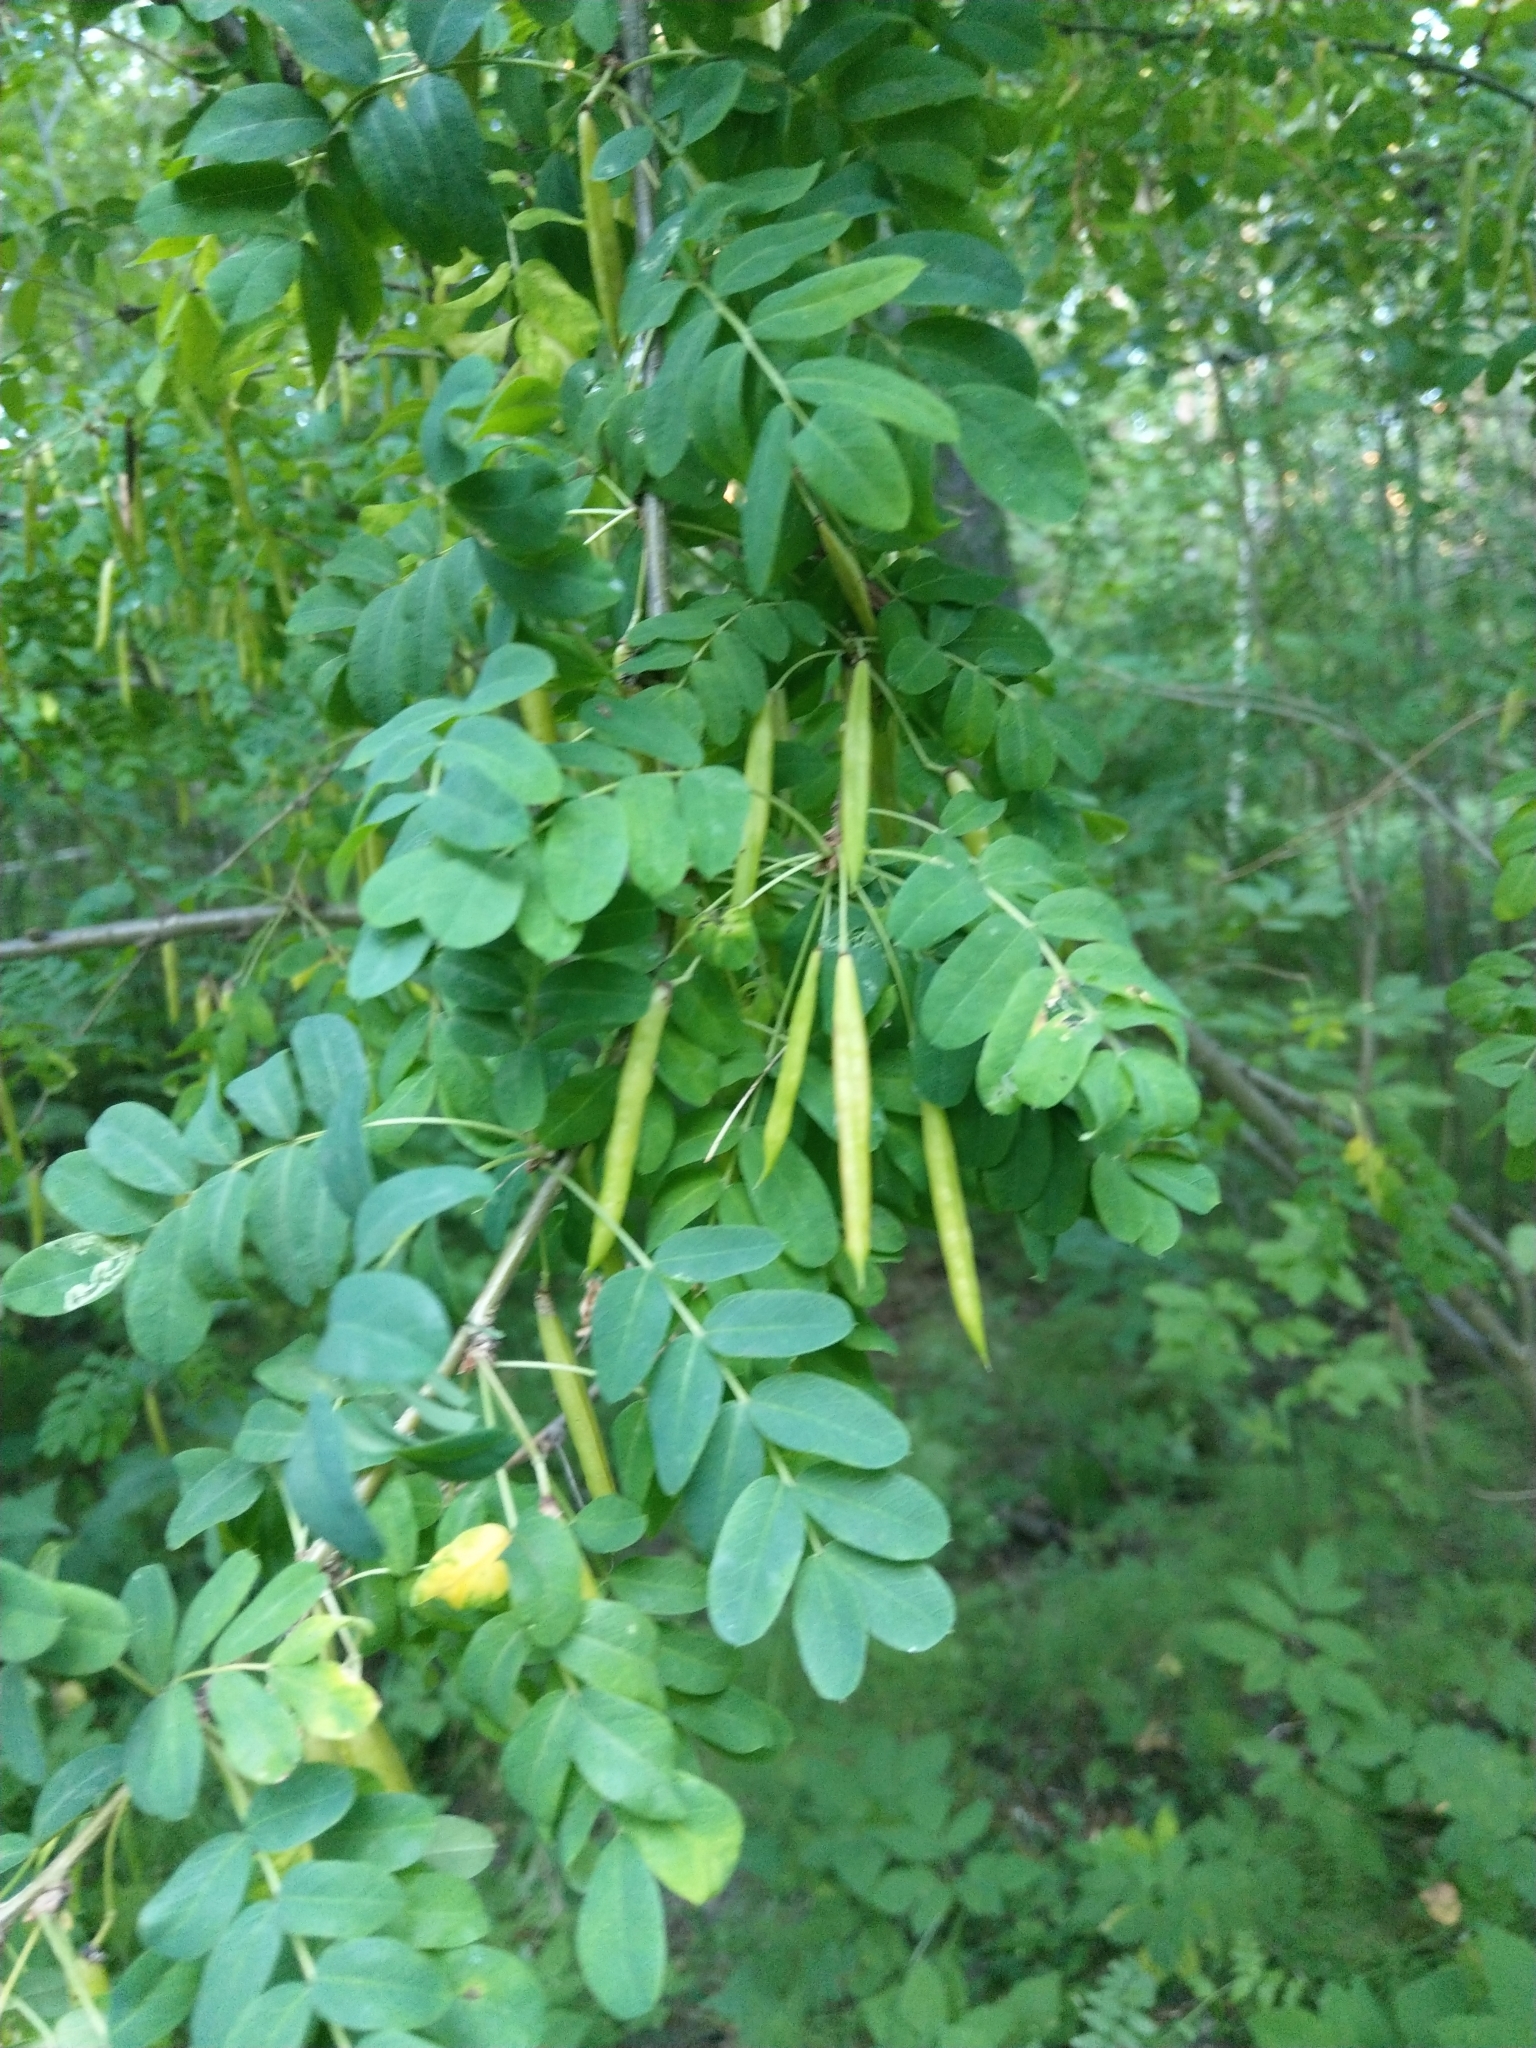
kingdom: Plantae
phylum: Tracheophyta
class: Magnoliopsida
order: Fabales
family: Fabaceae
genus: Caragana
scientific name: Caragana arborescens
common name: Siberian peashrub
